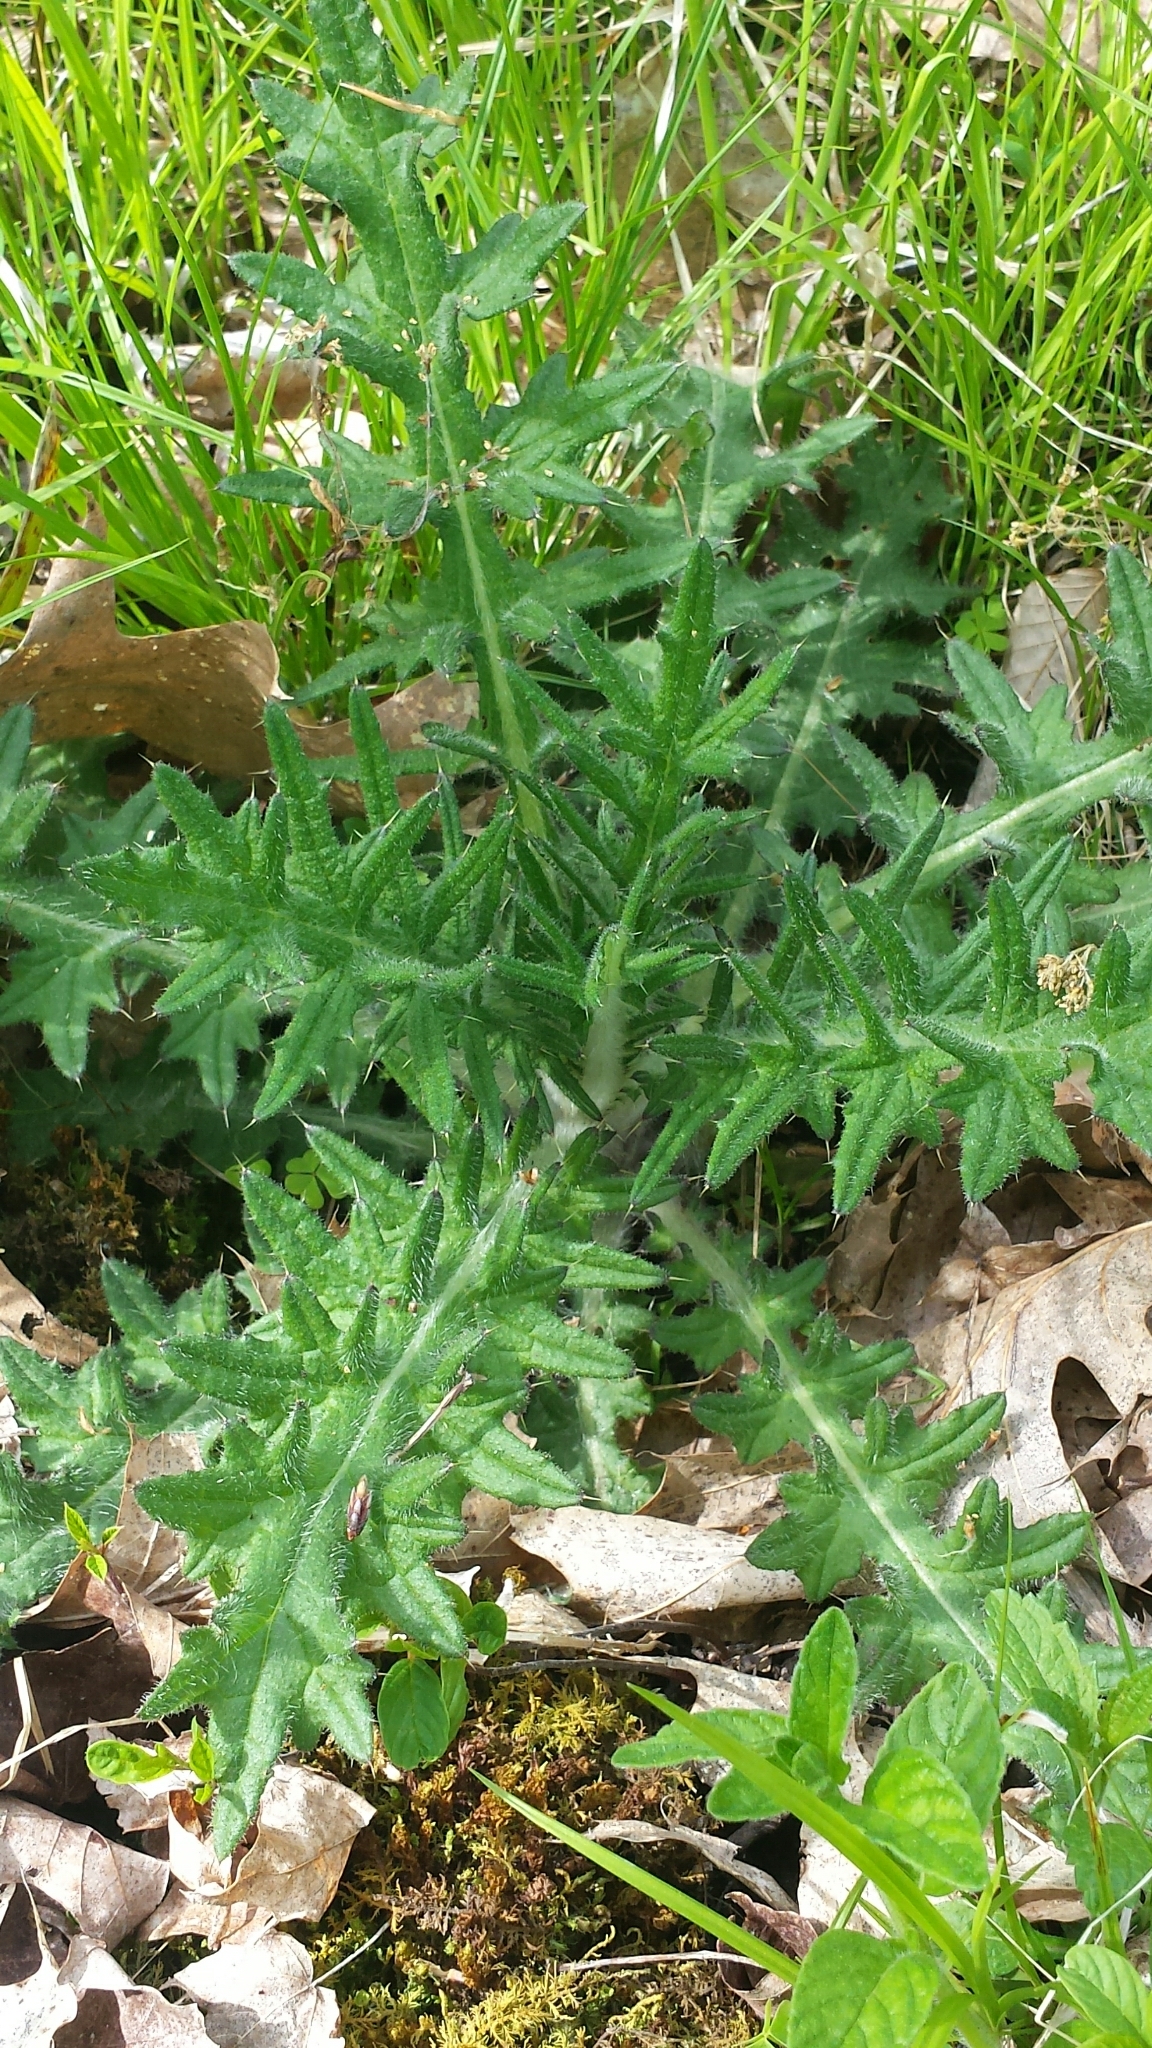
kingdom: Plantae
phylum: Tracheophyta
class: Magnoliopsida
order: Asterales
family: Asteraceae
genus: Cirsium
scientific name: Cirsium vulgare
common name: Bull thistle
